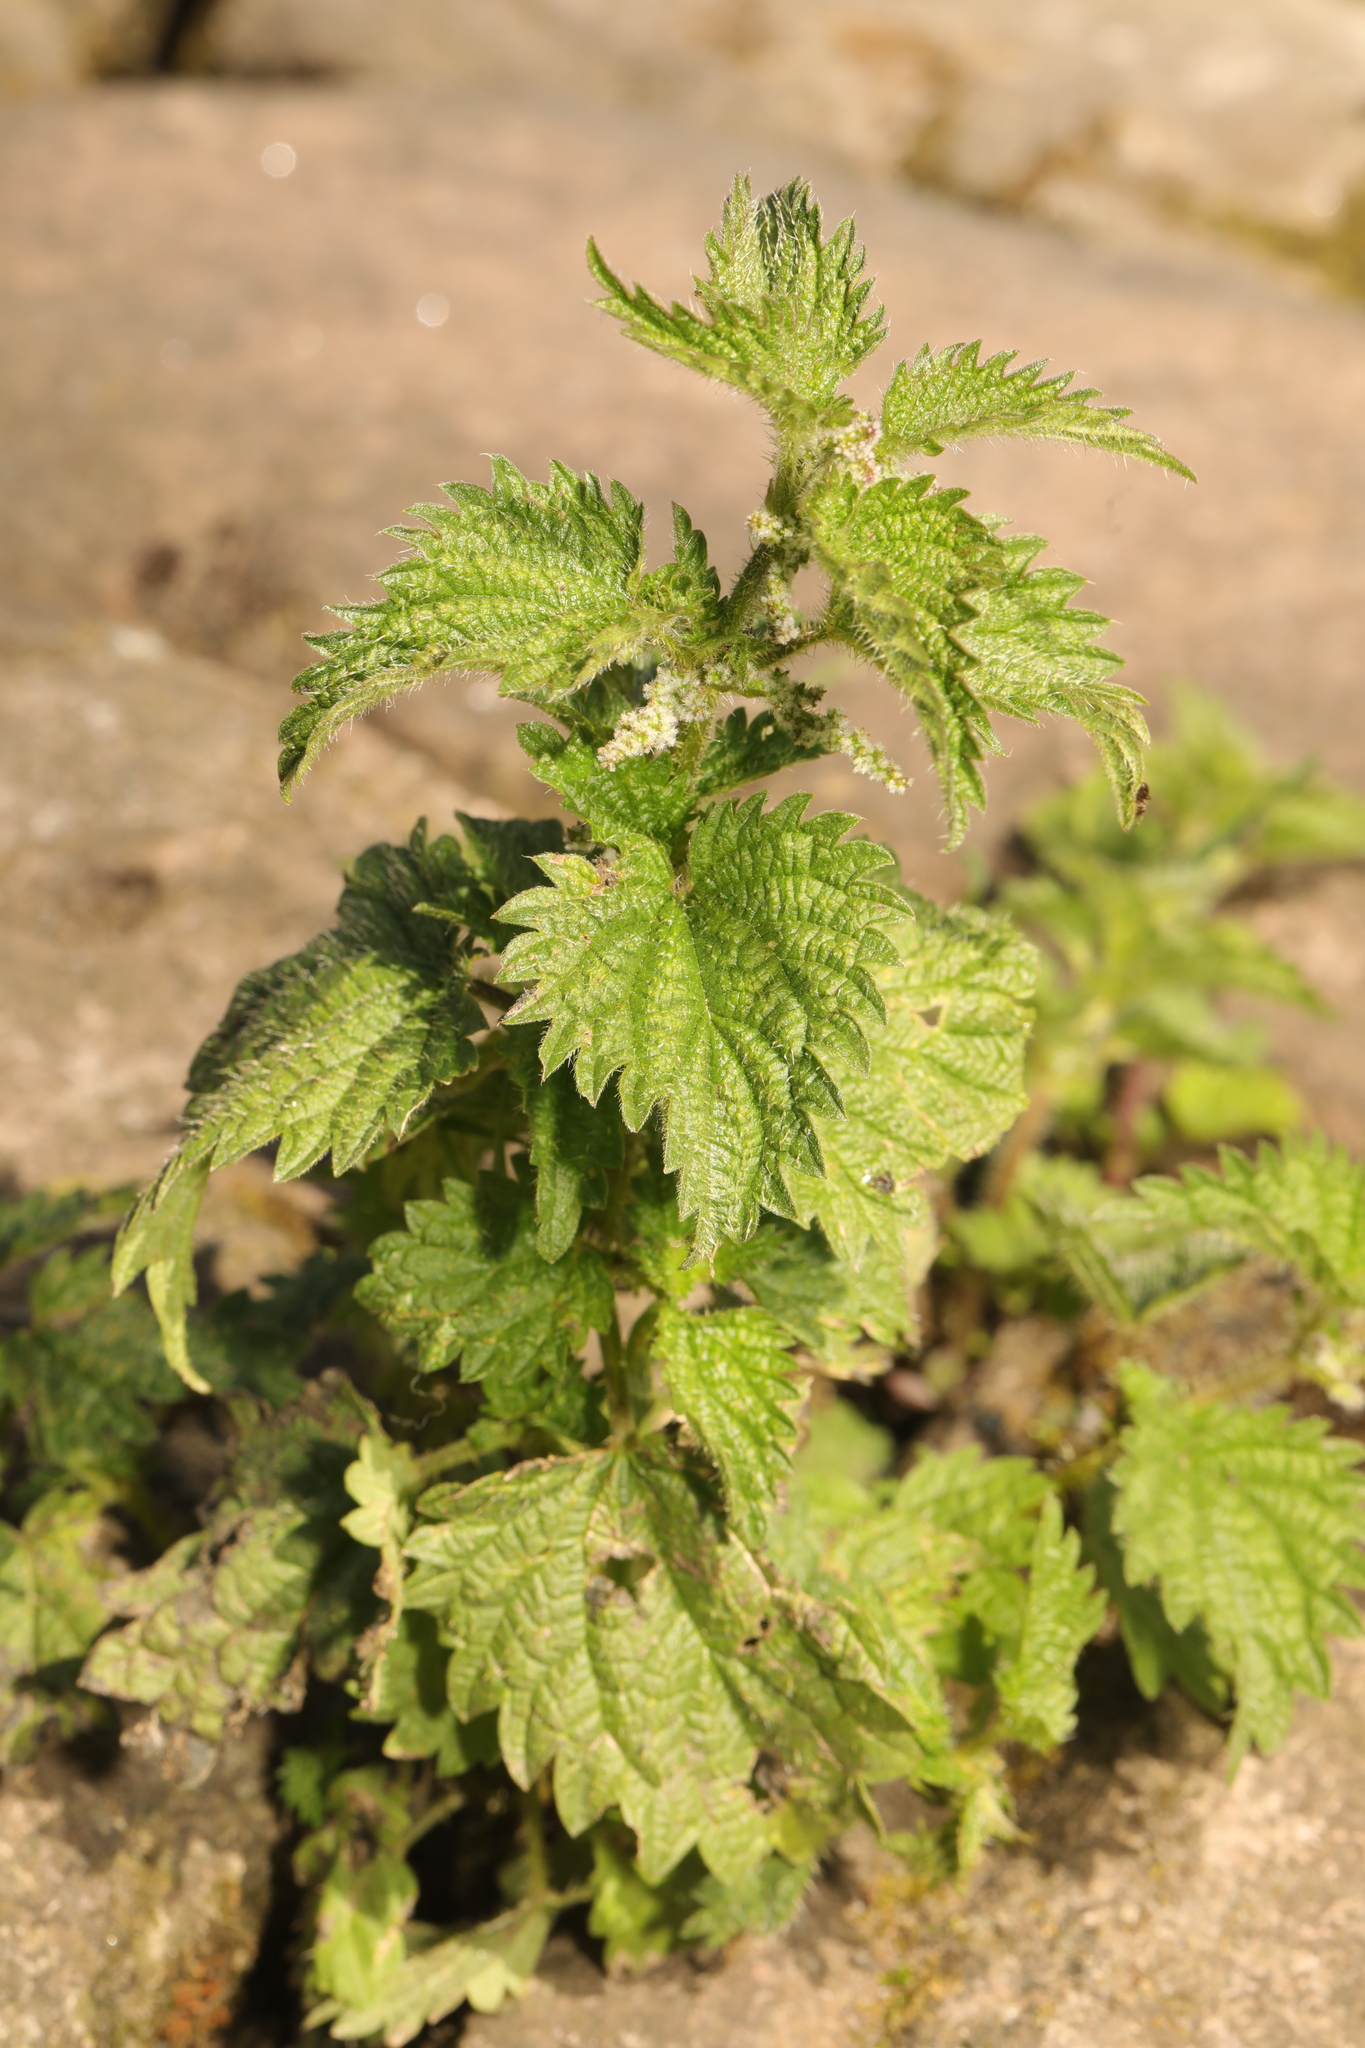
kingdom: Plantae
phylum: Tracheophyta
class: Magnoliopsida
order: Rosales
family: Urticaceae
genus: Urtica
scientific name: Urtica dioica
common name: Common nettle
